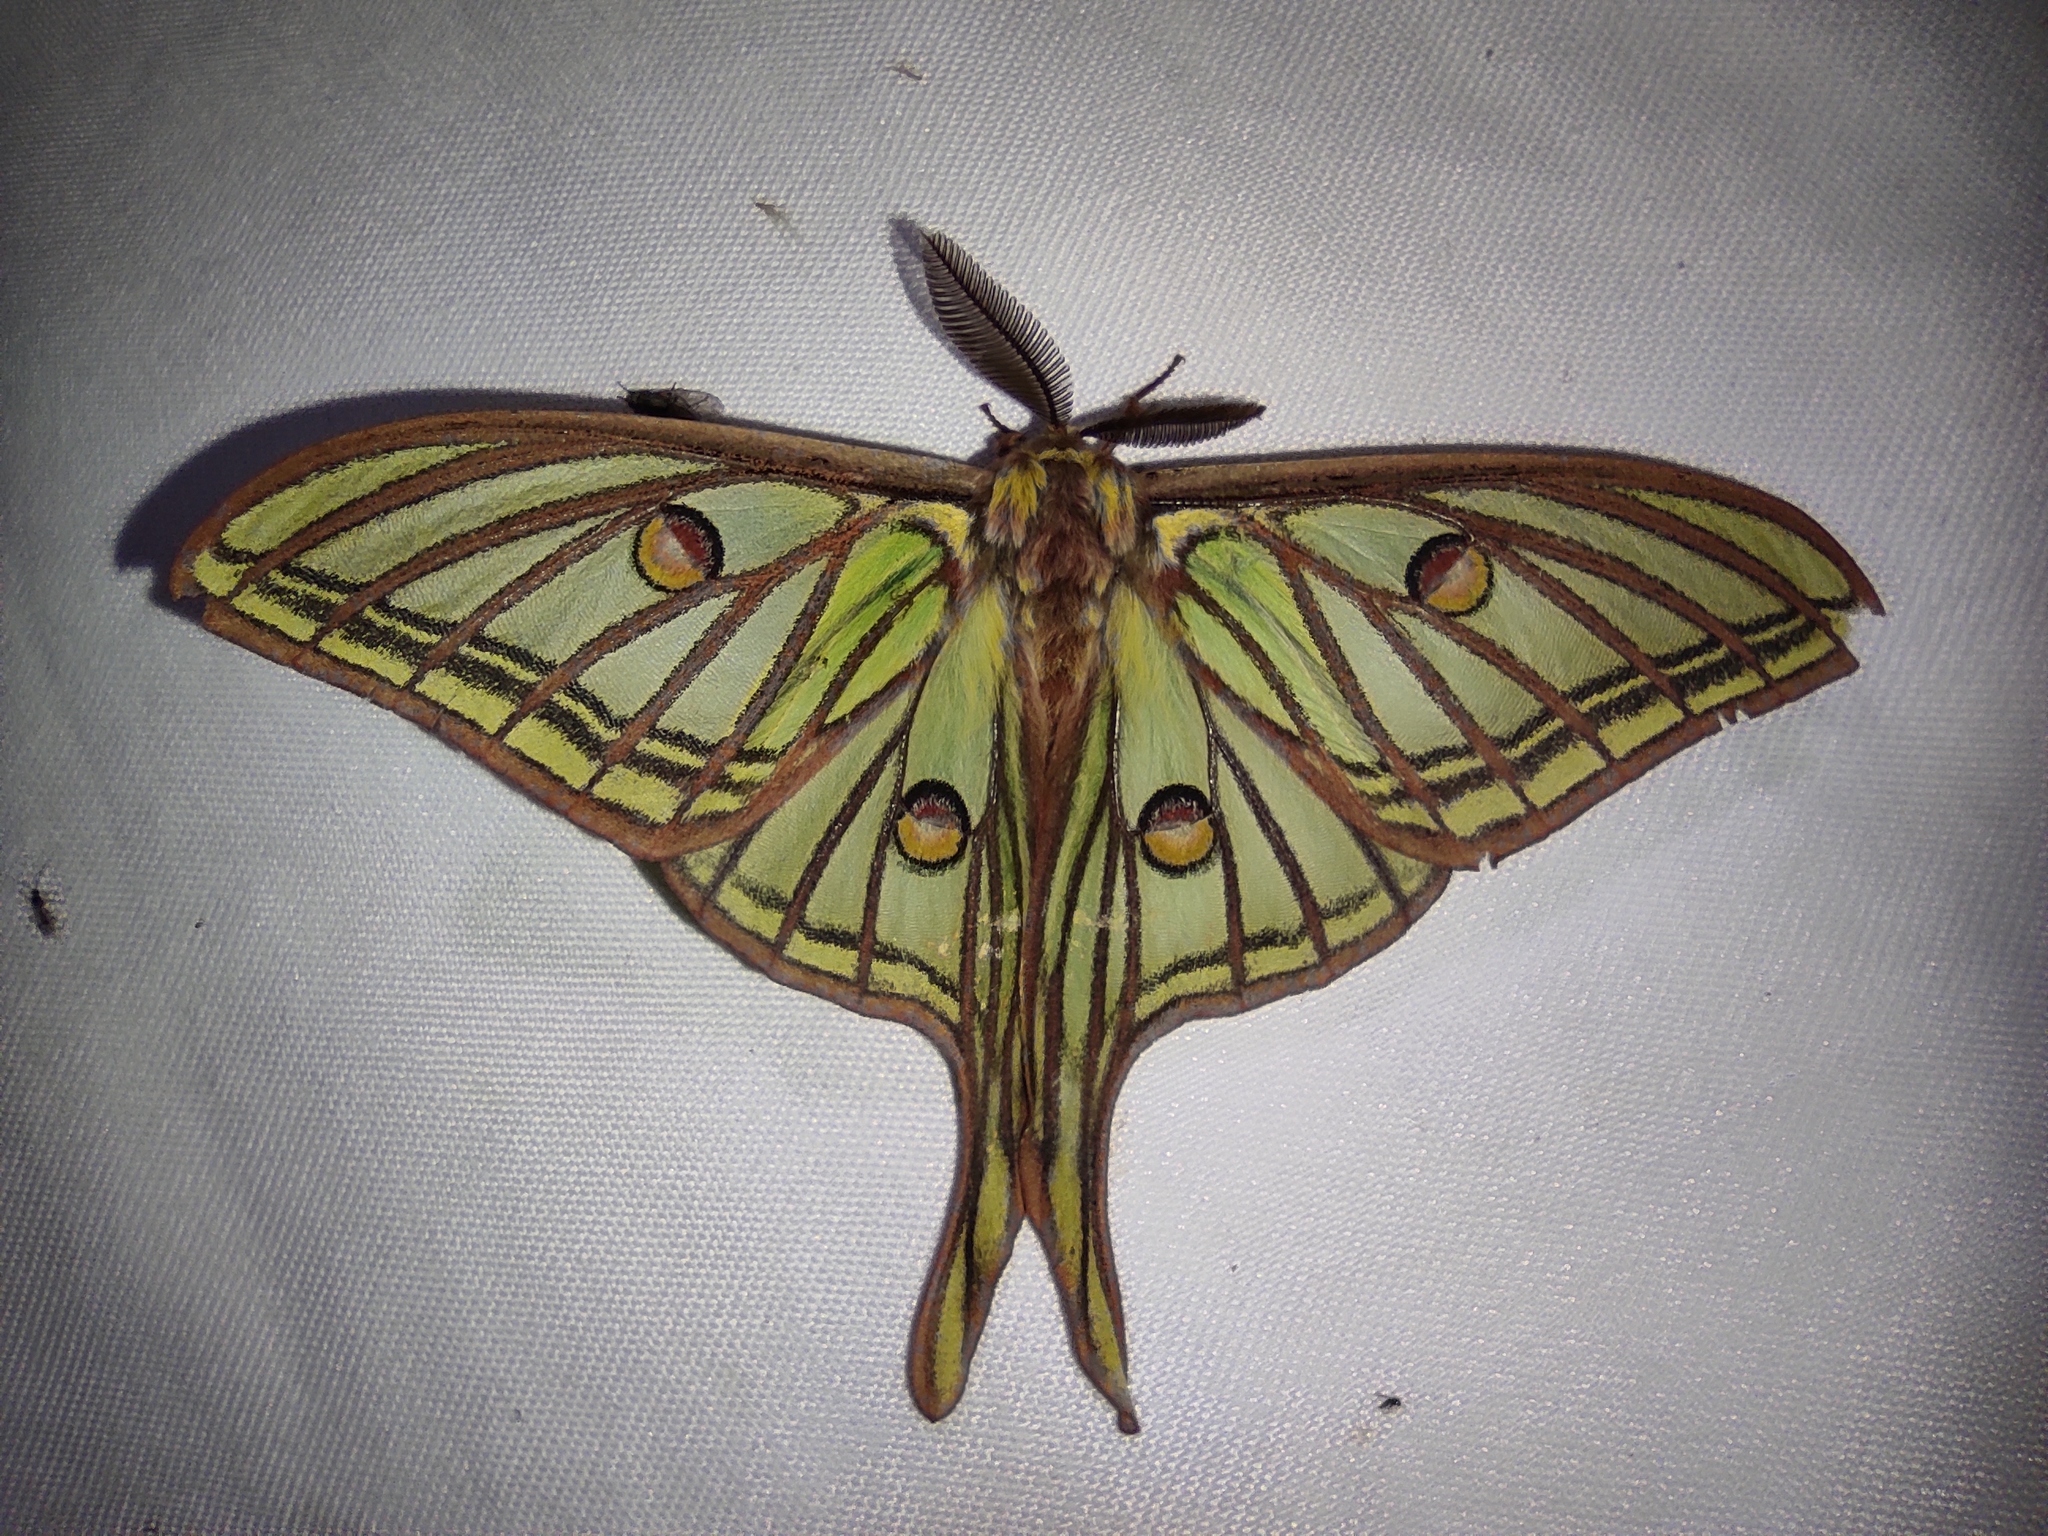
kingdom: Animalia
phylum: Arthropoda
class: Insecta
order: Lepidoptera
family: Saturniidae
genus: Graellsia
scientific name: Graellsia isabellae
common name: Spanish moon moth
